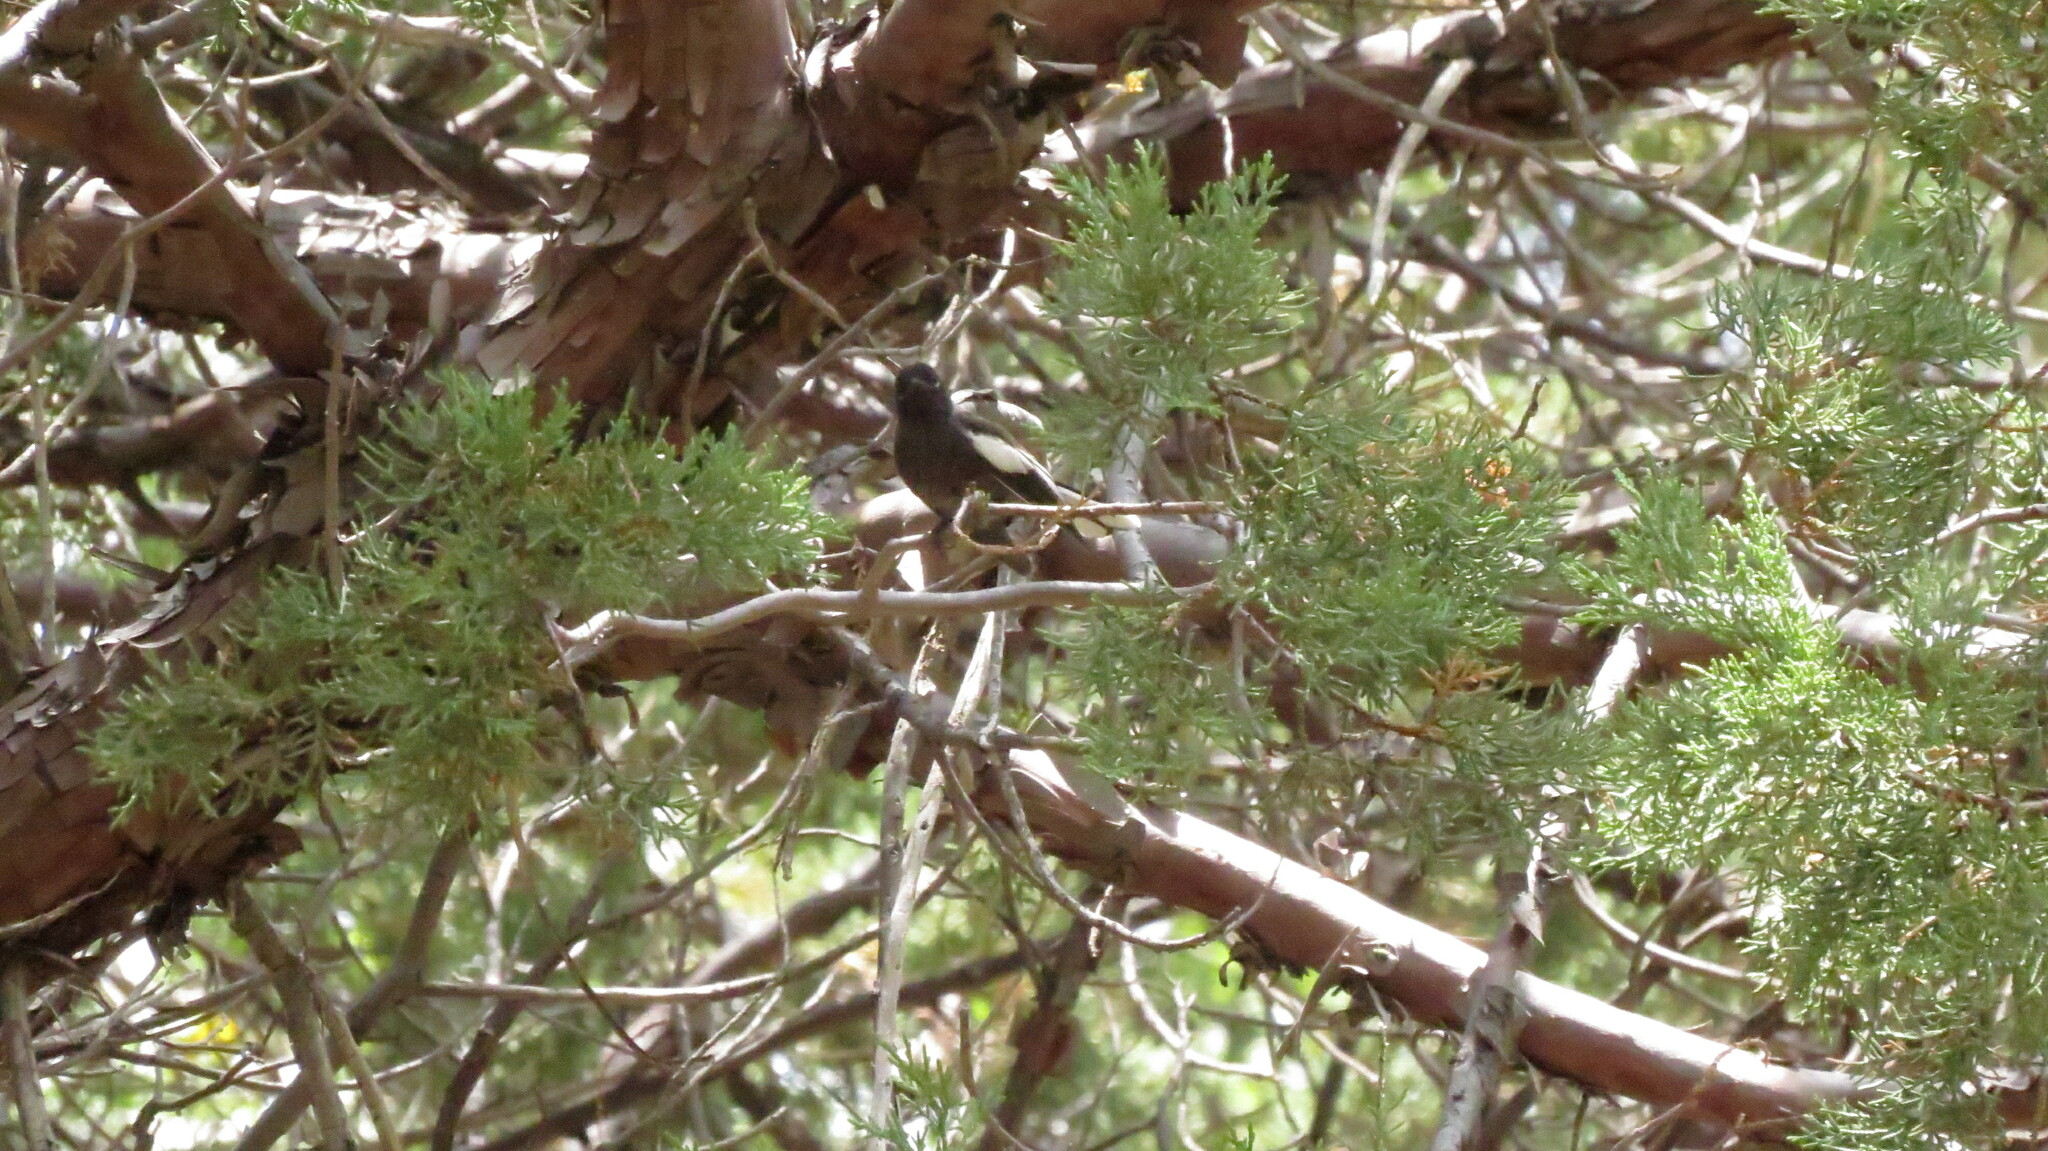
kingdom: Animalia
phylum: Chordata
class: Aves
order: Passeriformes
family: Parulidae
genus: Myioborus
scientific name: Myioborus pictus
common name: Painted whitestart
